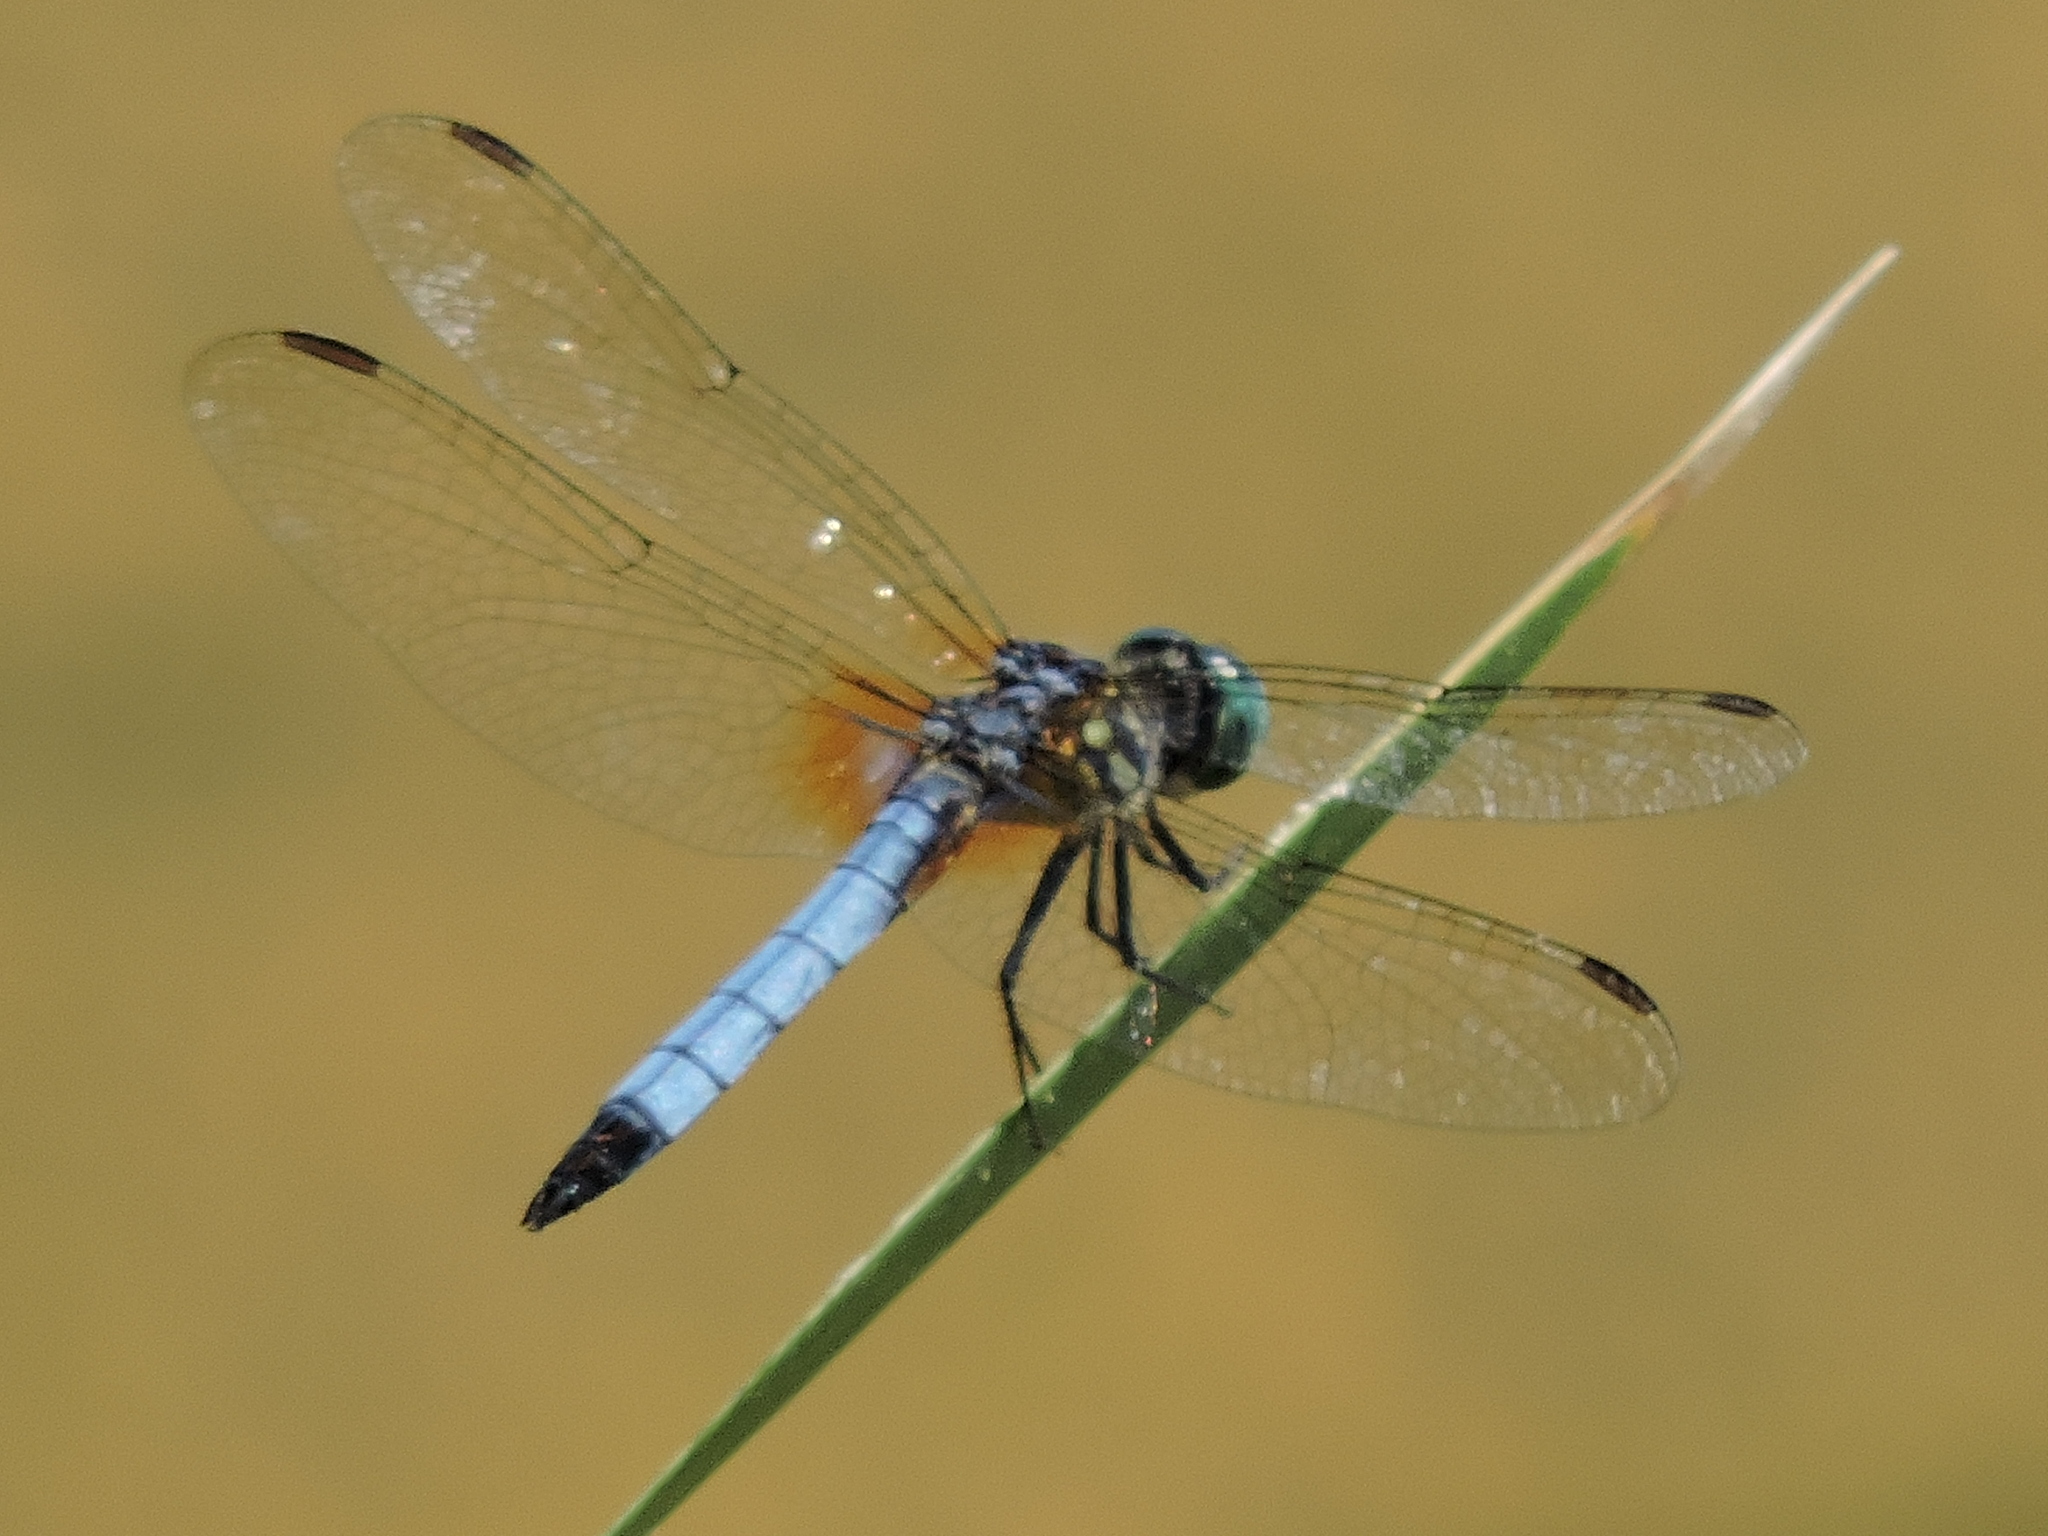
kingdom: Animalia
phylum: Arthropoda
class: Insecta
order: Odonata
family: Libellulidae
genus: Pachydiplax
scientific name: Pachydiplax longipennis
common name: Blue dasher
